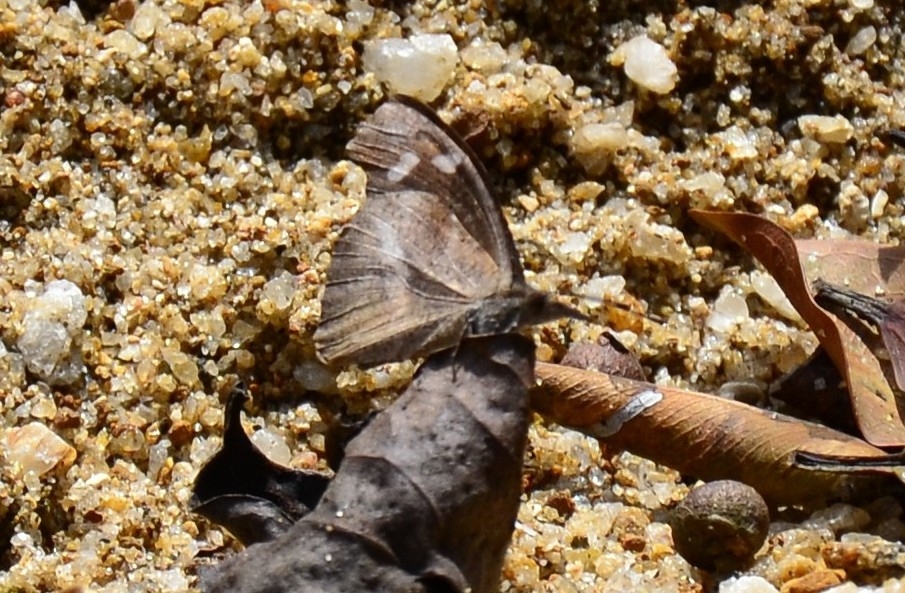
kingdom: Animalia
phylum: Arthropoda
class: Insecta
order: Lepidoptera
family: Nymphalidae
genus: Libythea
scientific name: Libythea myrrha
